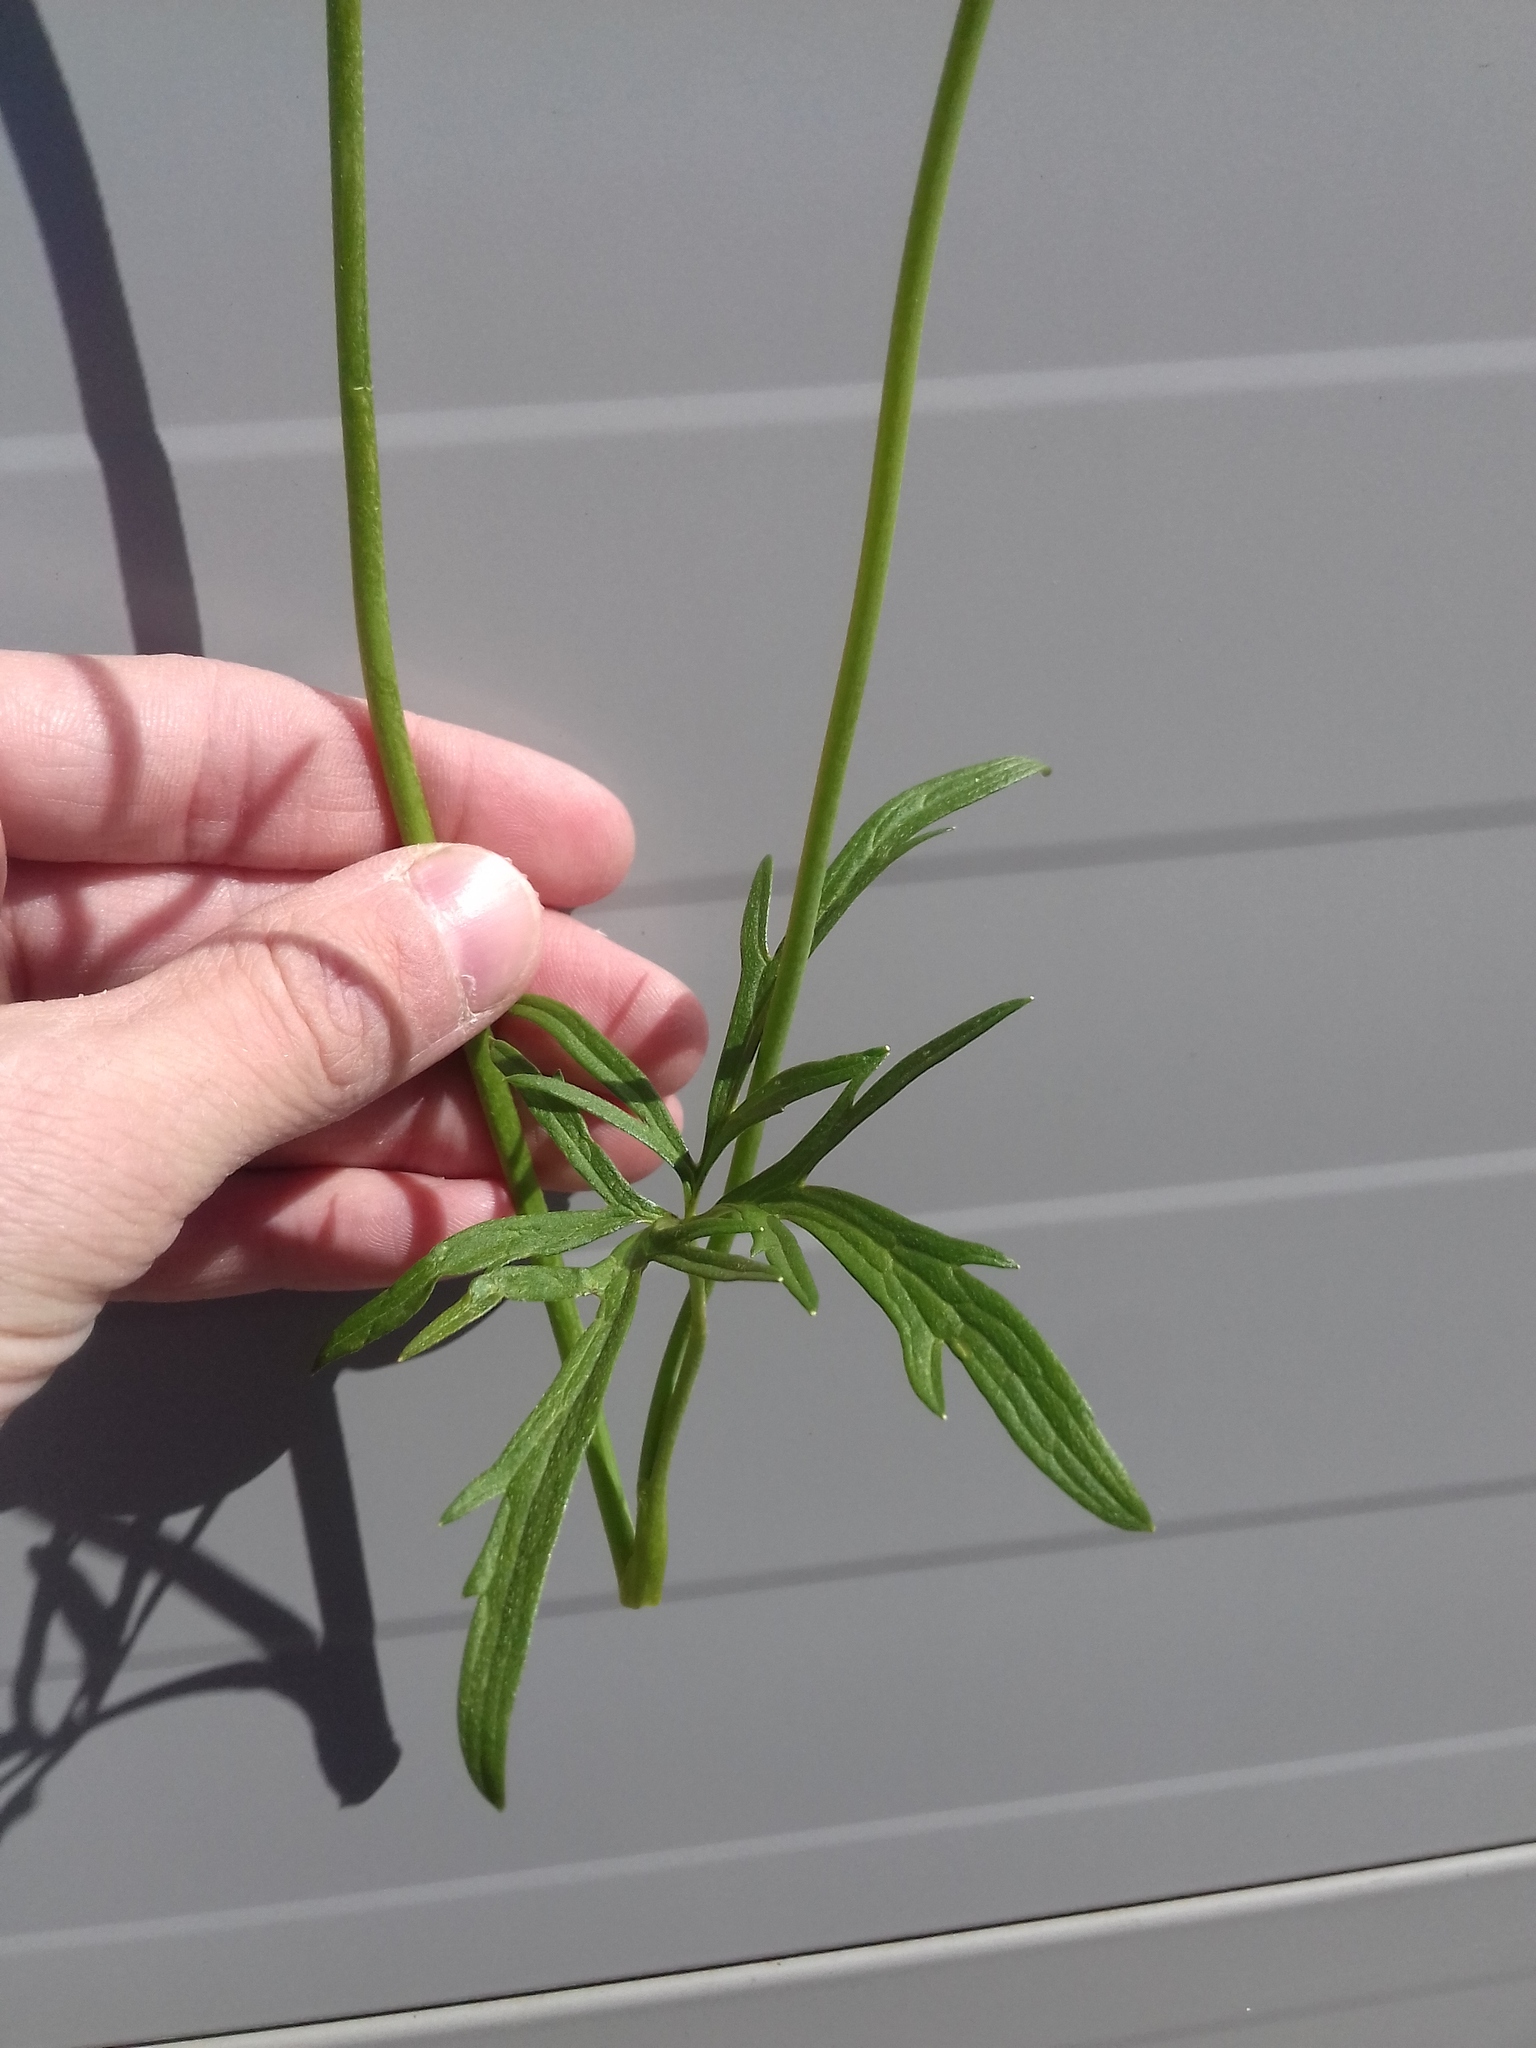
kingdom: Plantae
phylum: Tracheophyta
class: Magnoliopsida
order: Ranunculales
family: Ranunculaceae
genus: Ranunculus
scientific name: Ranunculus acris
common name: Meadow buttercup
